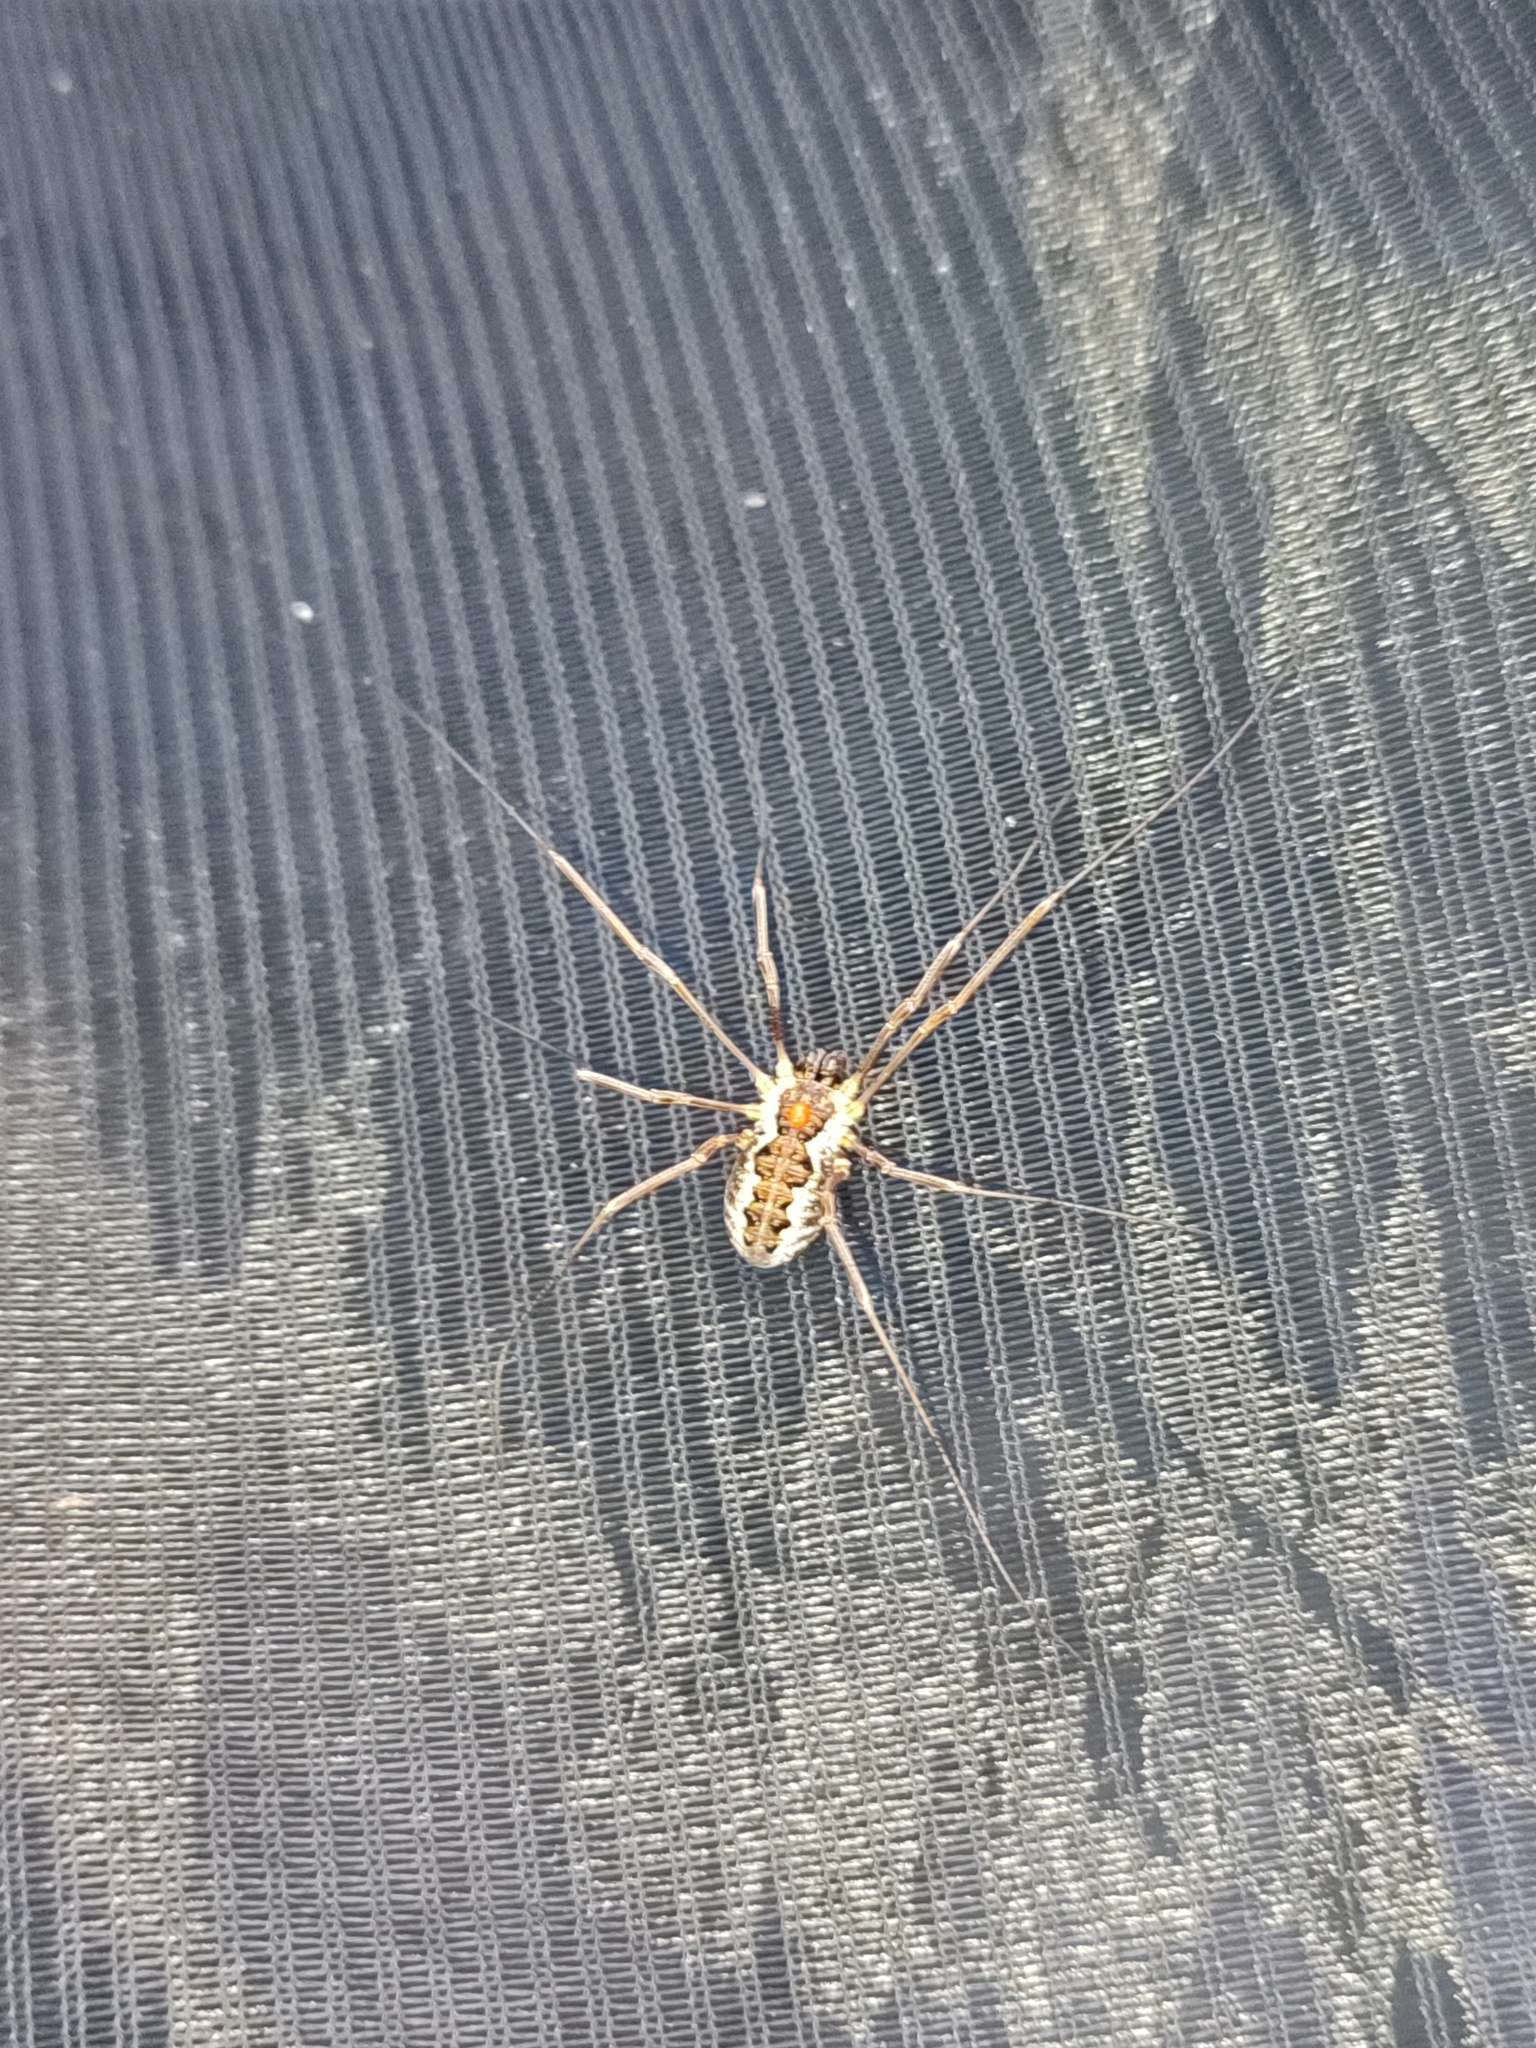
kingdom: Animalia
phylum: Arthropoda
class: Arachnida
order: Opiliones
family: Phalangiidae
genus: Mitopus
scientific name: Mitopus morio
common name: Saddleback harvestman
